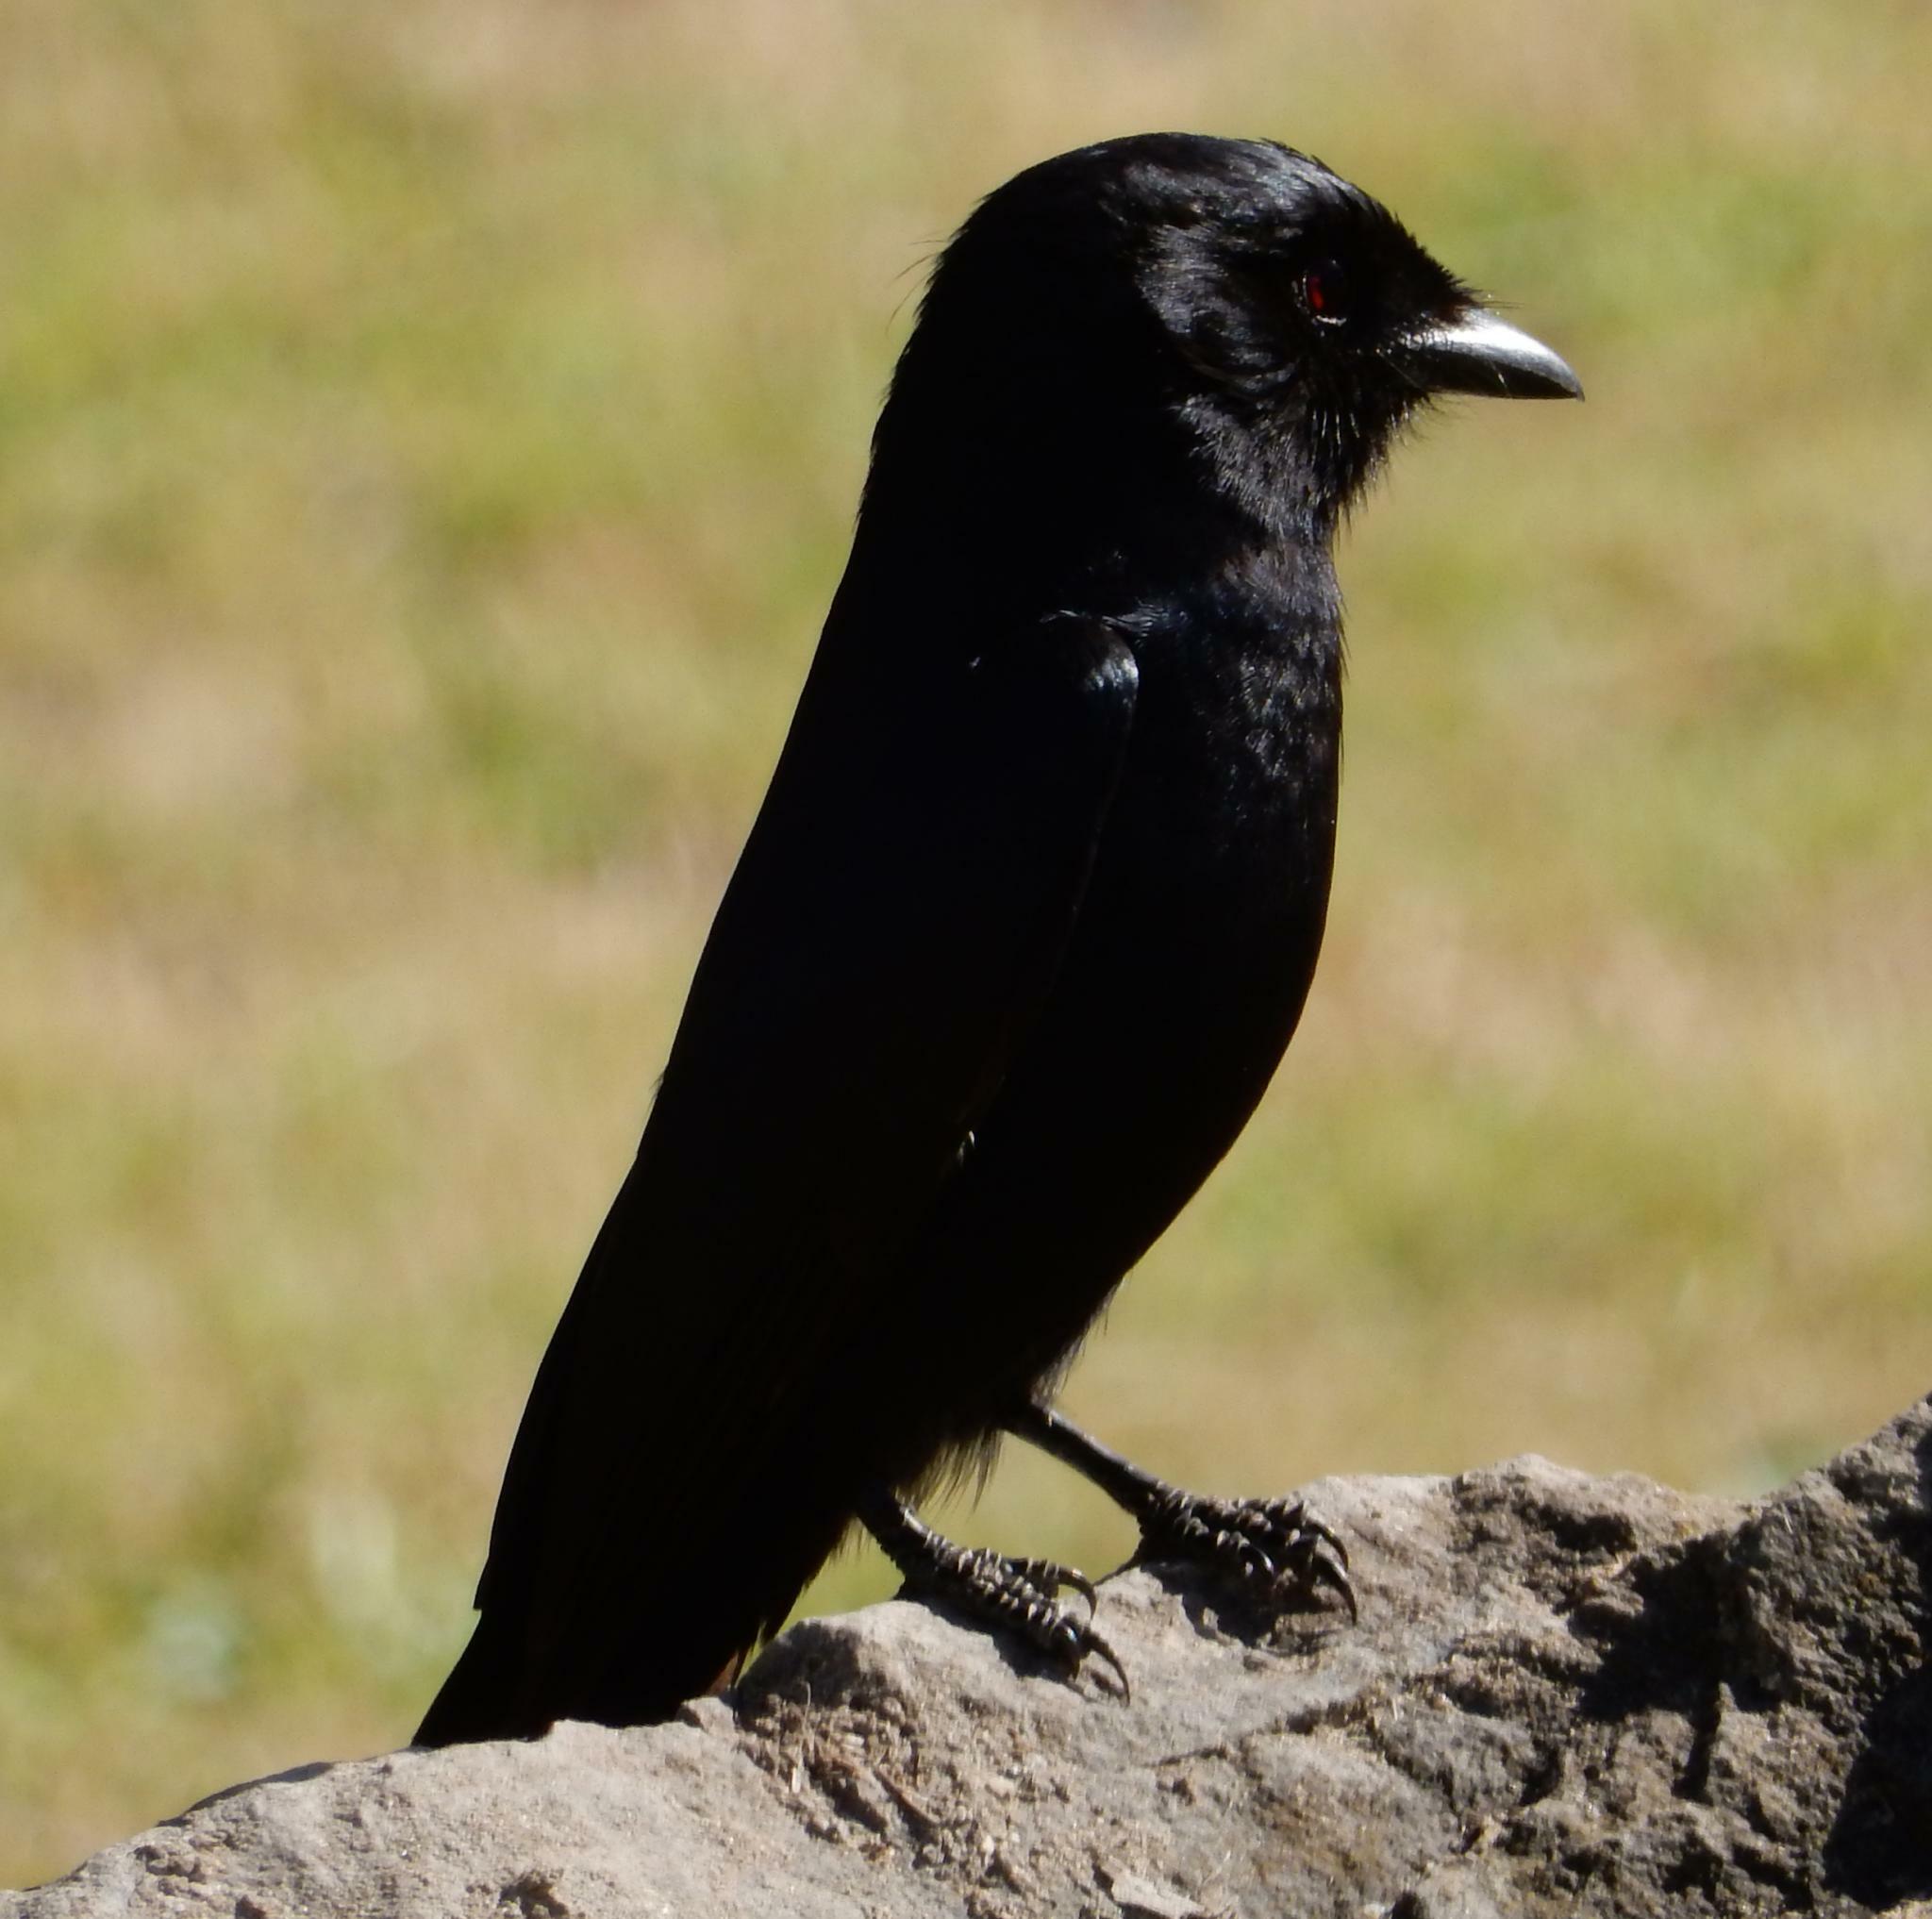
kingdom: Animalia
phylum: Chordata
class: Aves
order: Passeriformes
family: Dicruridae
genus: Dicrurus
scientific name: Dicrurus adsimilis
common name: Fork-tailed drongo
